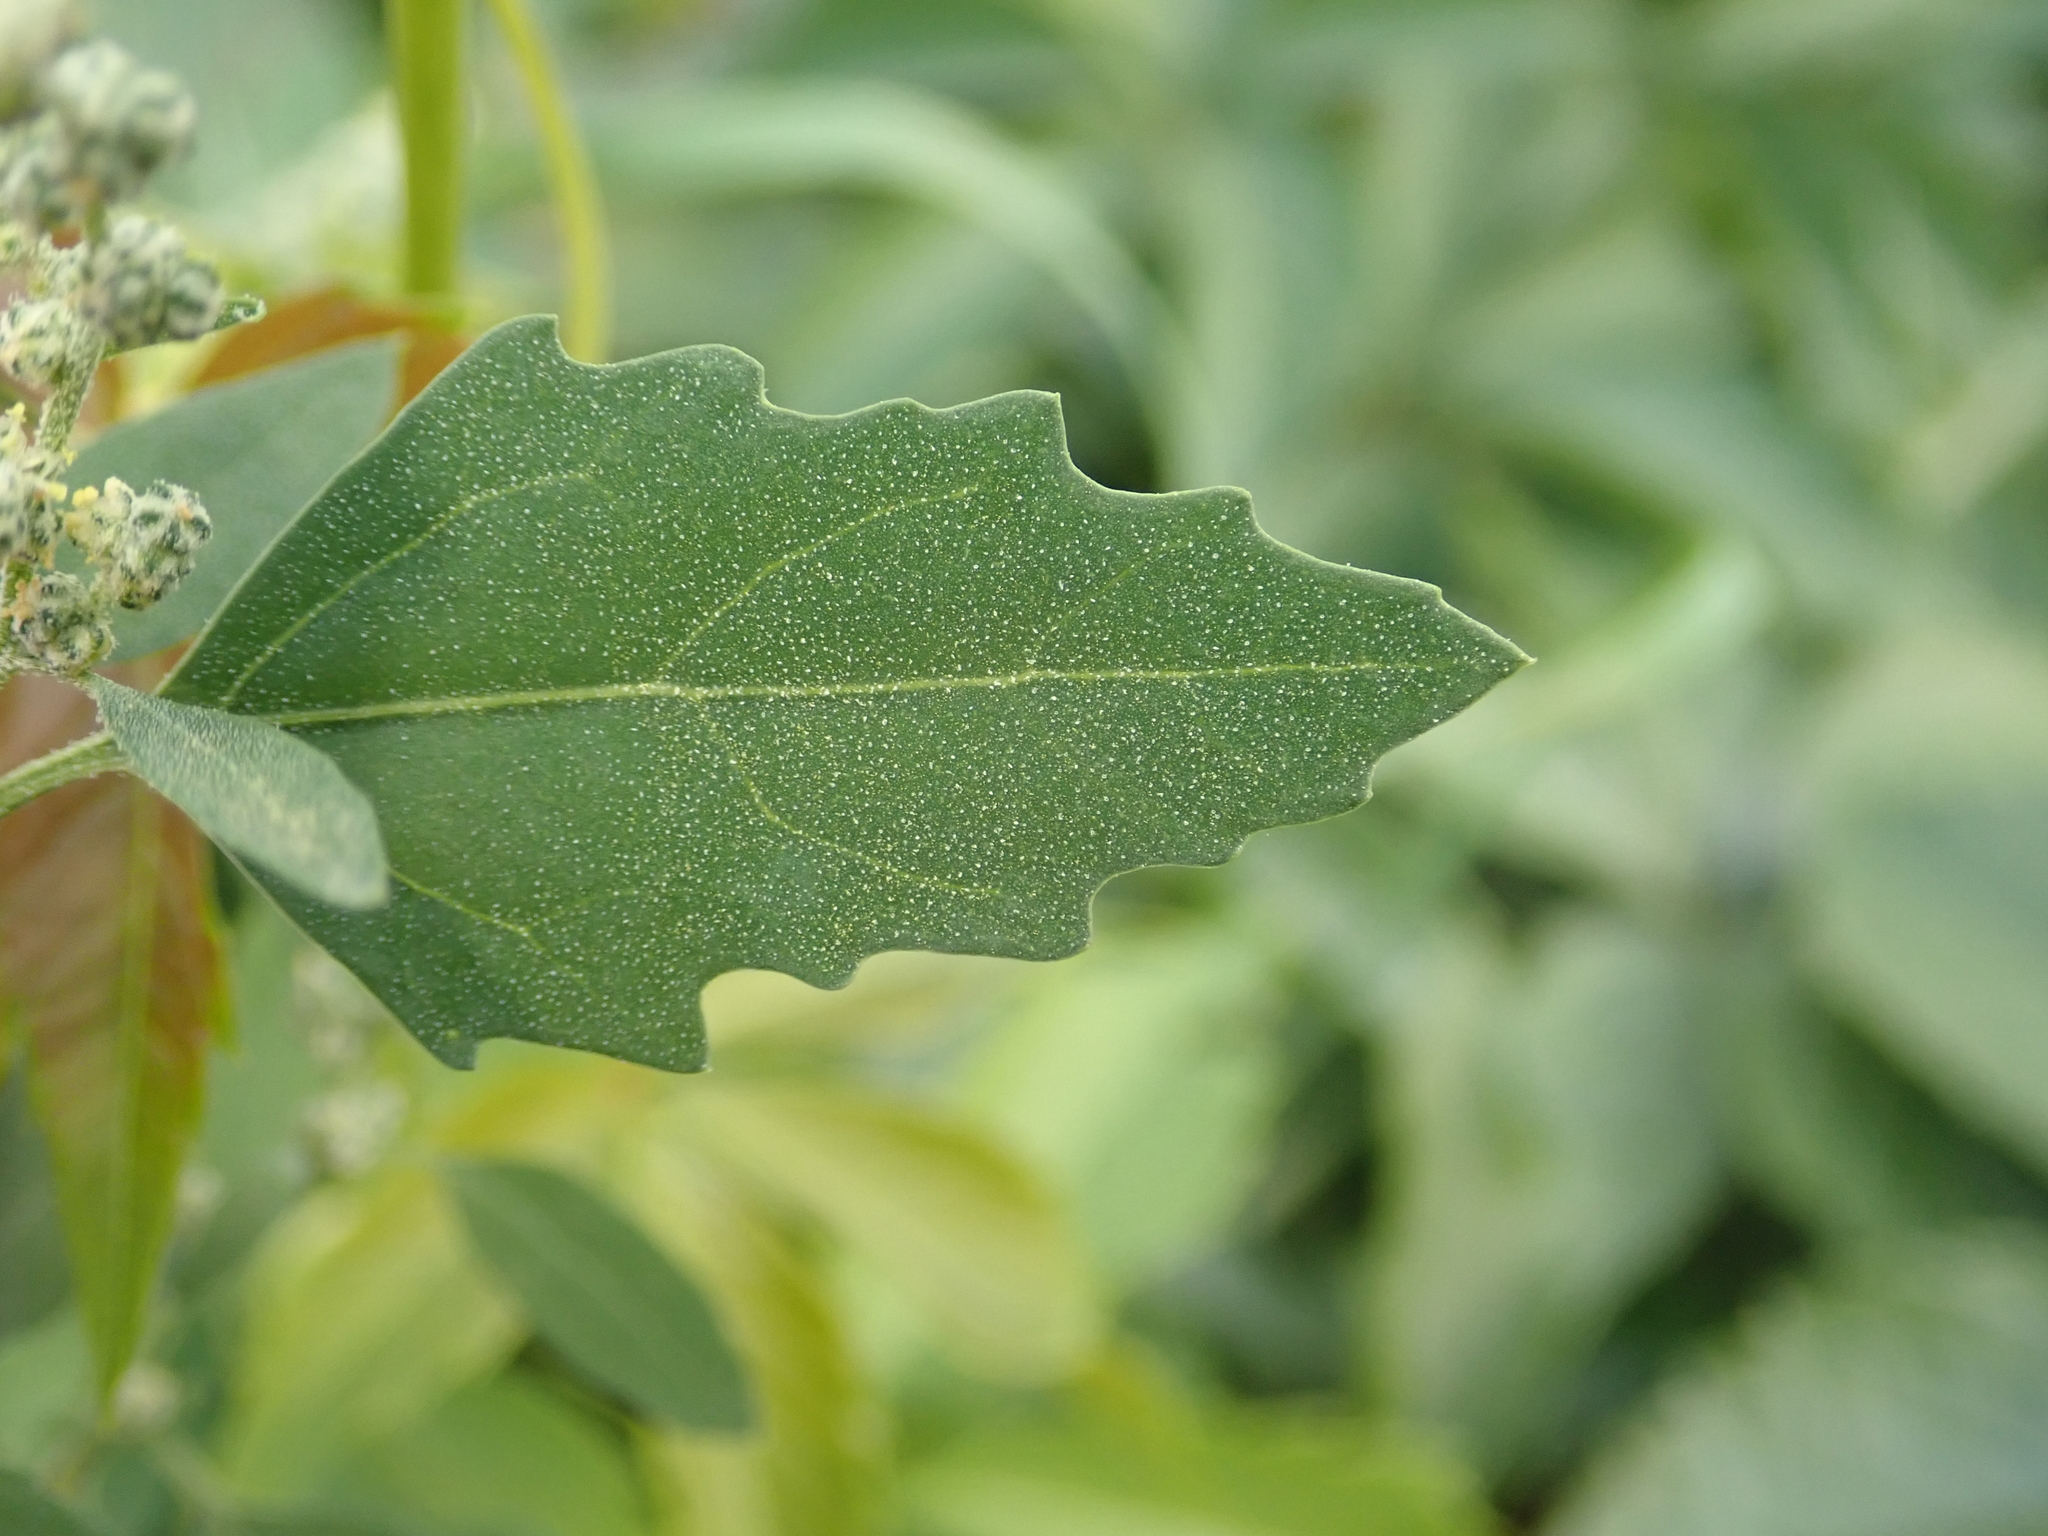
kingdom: Plantae
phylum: Tracheophyta
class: Magnoliopsida
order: Caryophyllales
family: Amaranthaceae
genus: Chenopodium
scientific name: Chenopodium album
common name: Fat-hen
